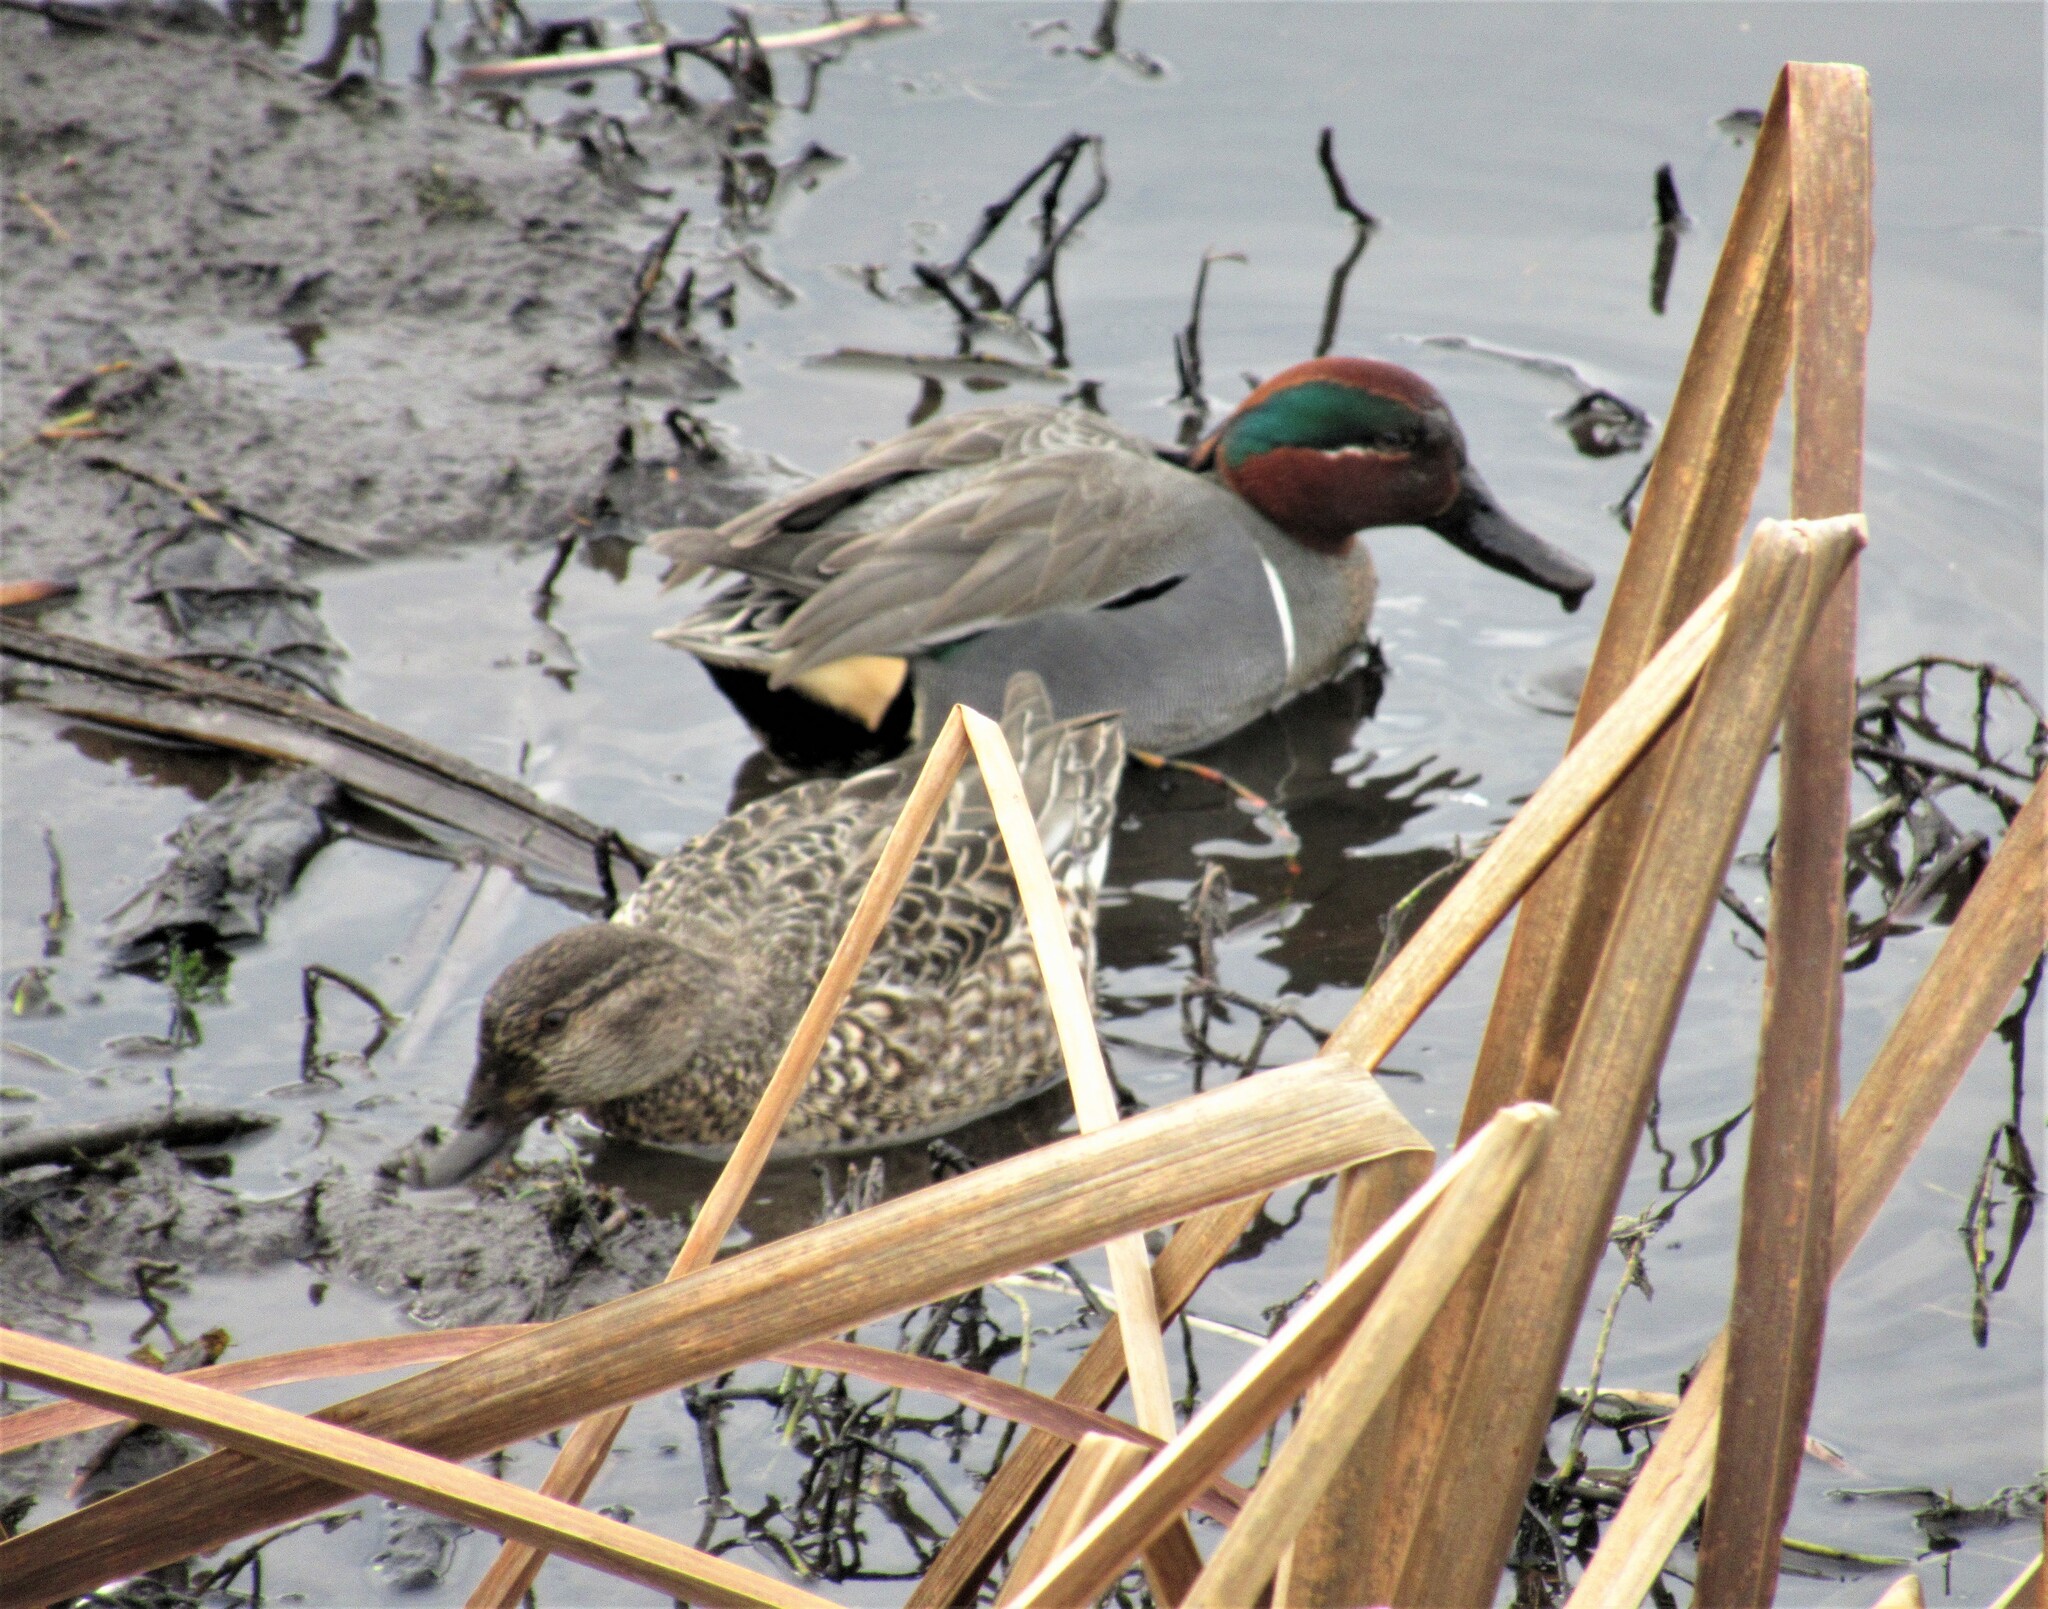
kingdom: Animalia
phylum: Chordata
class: Aves
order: Anseriformes
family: Anatidae
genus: Anas
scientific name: Anas crecca
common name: Eurasian teal
